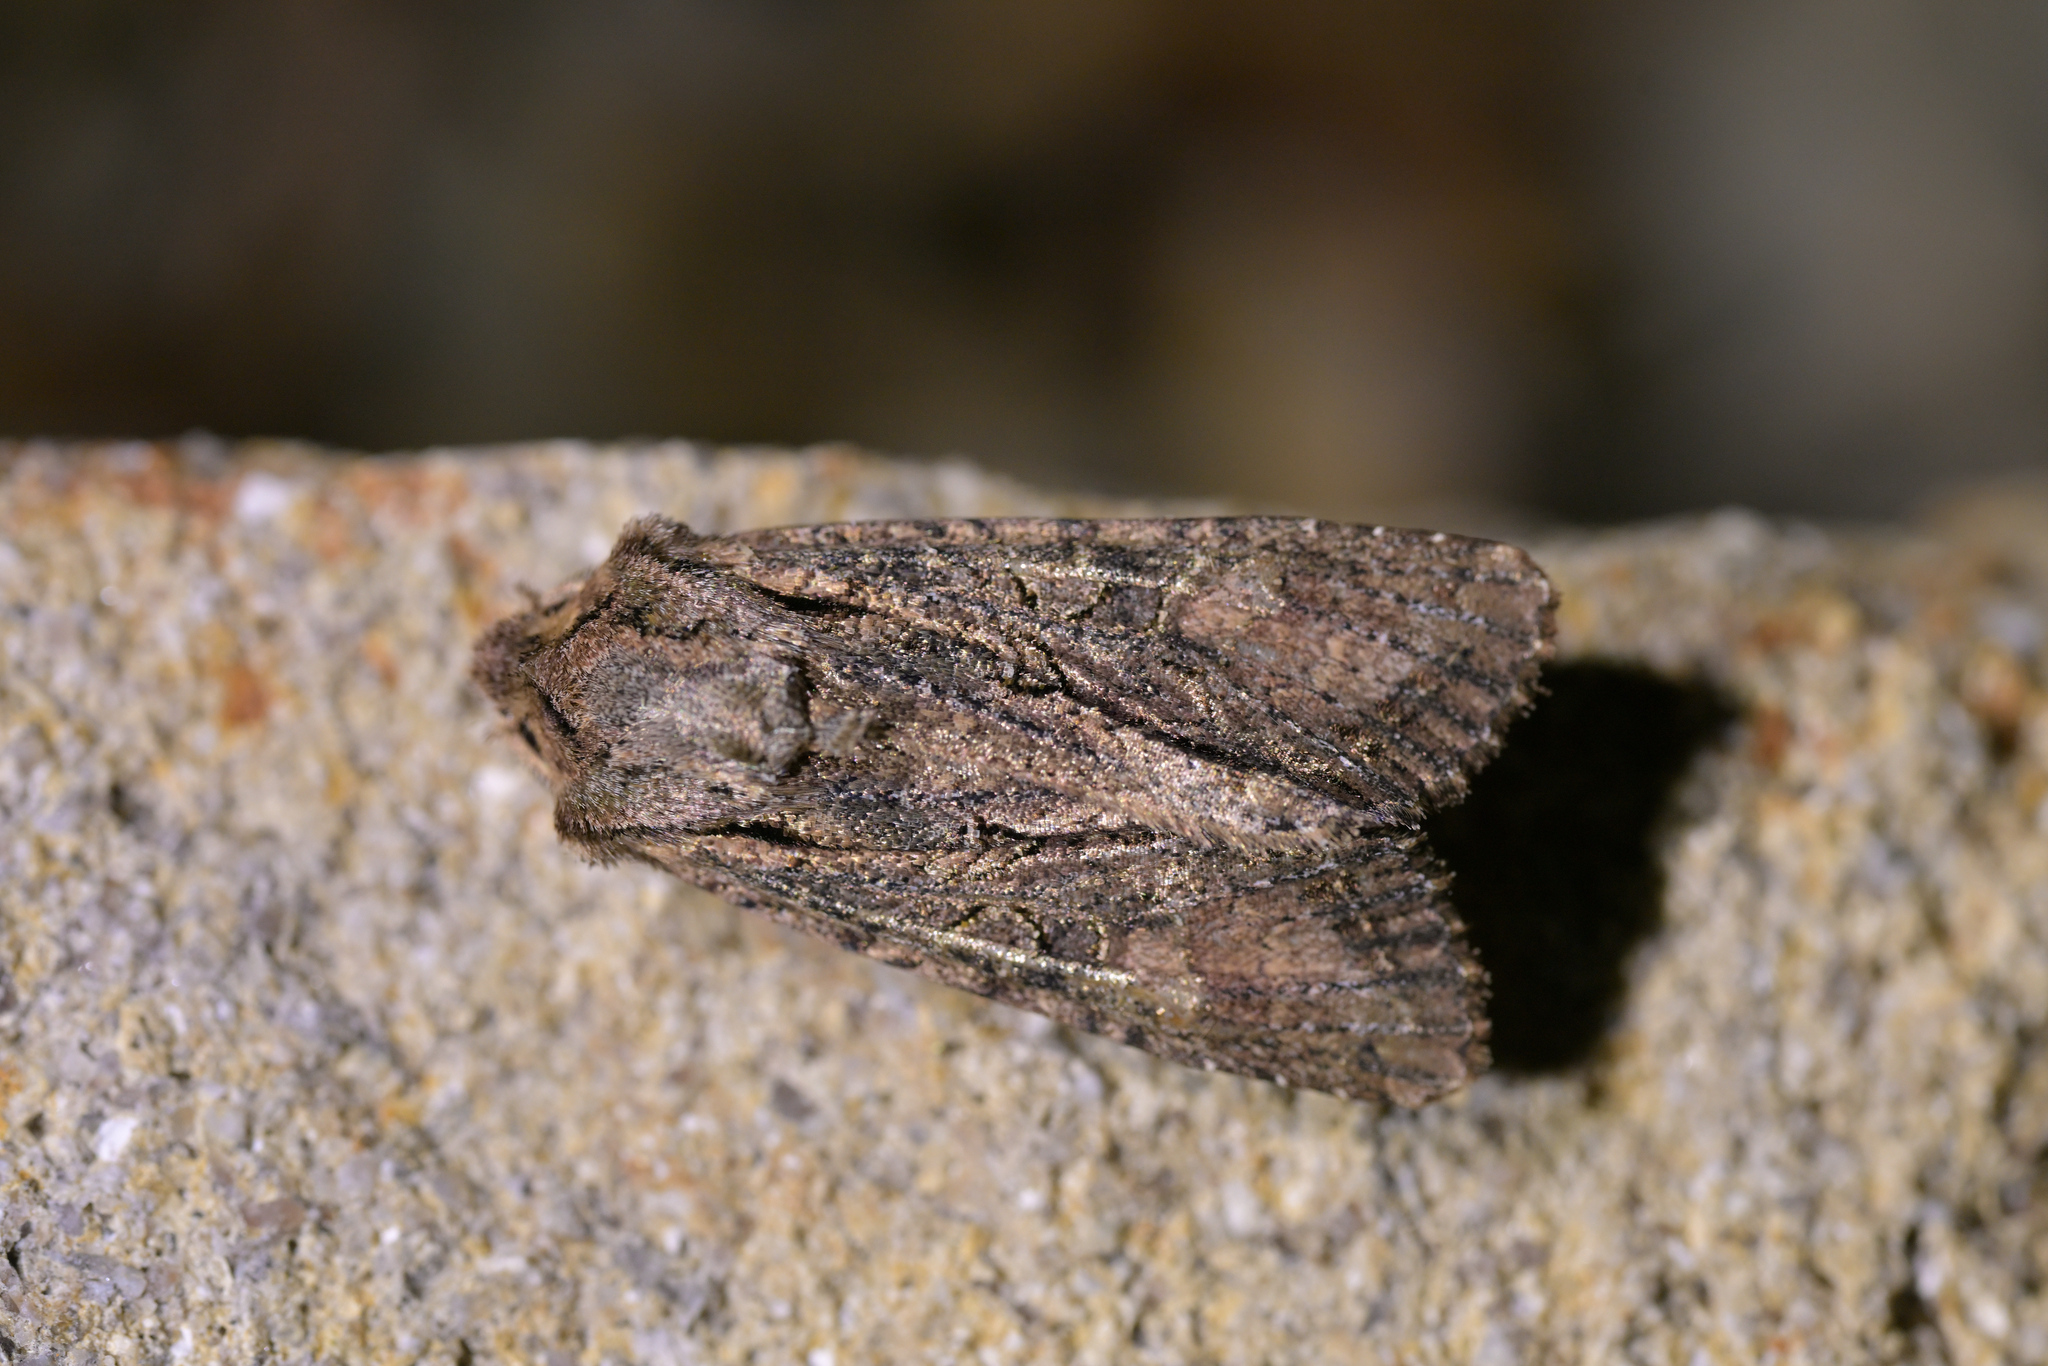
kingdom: Animalia
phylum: Arthropoda
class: Insecta
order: Lepidoptera
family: Noctuidae
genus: Ichneutica
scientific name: Ichneutica mutans
